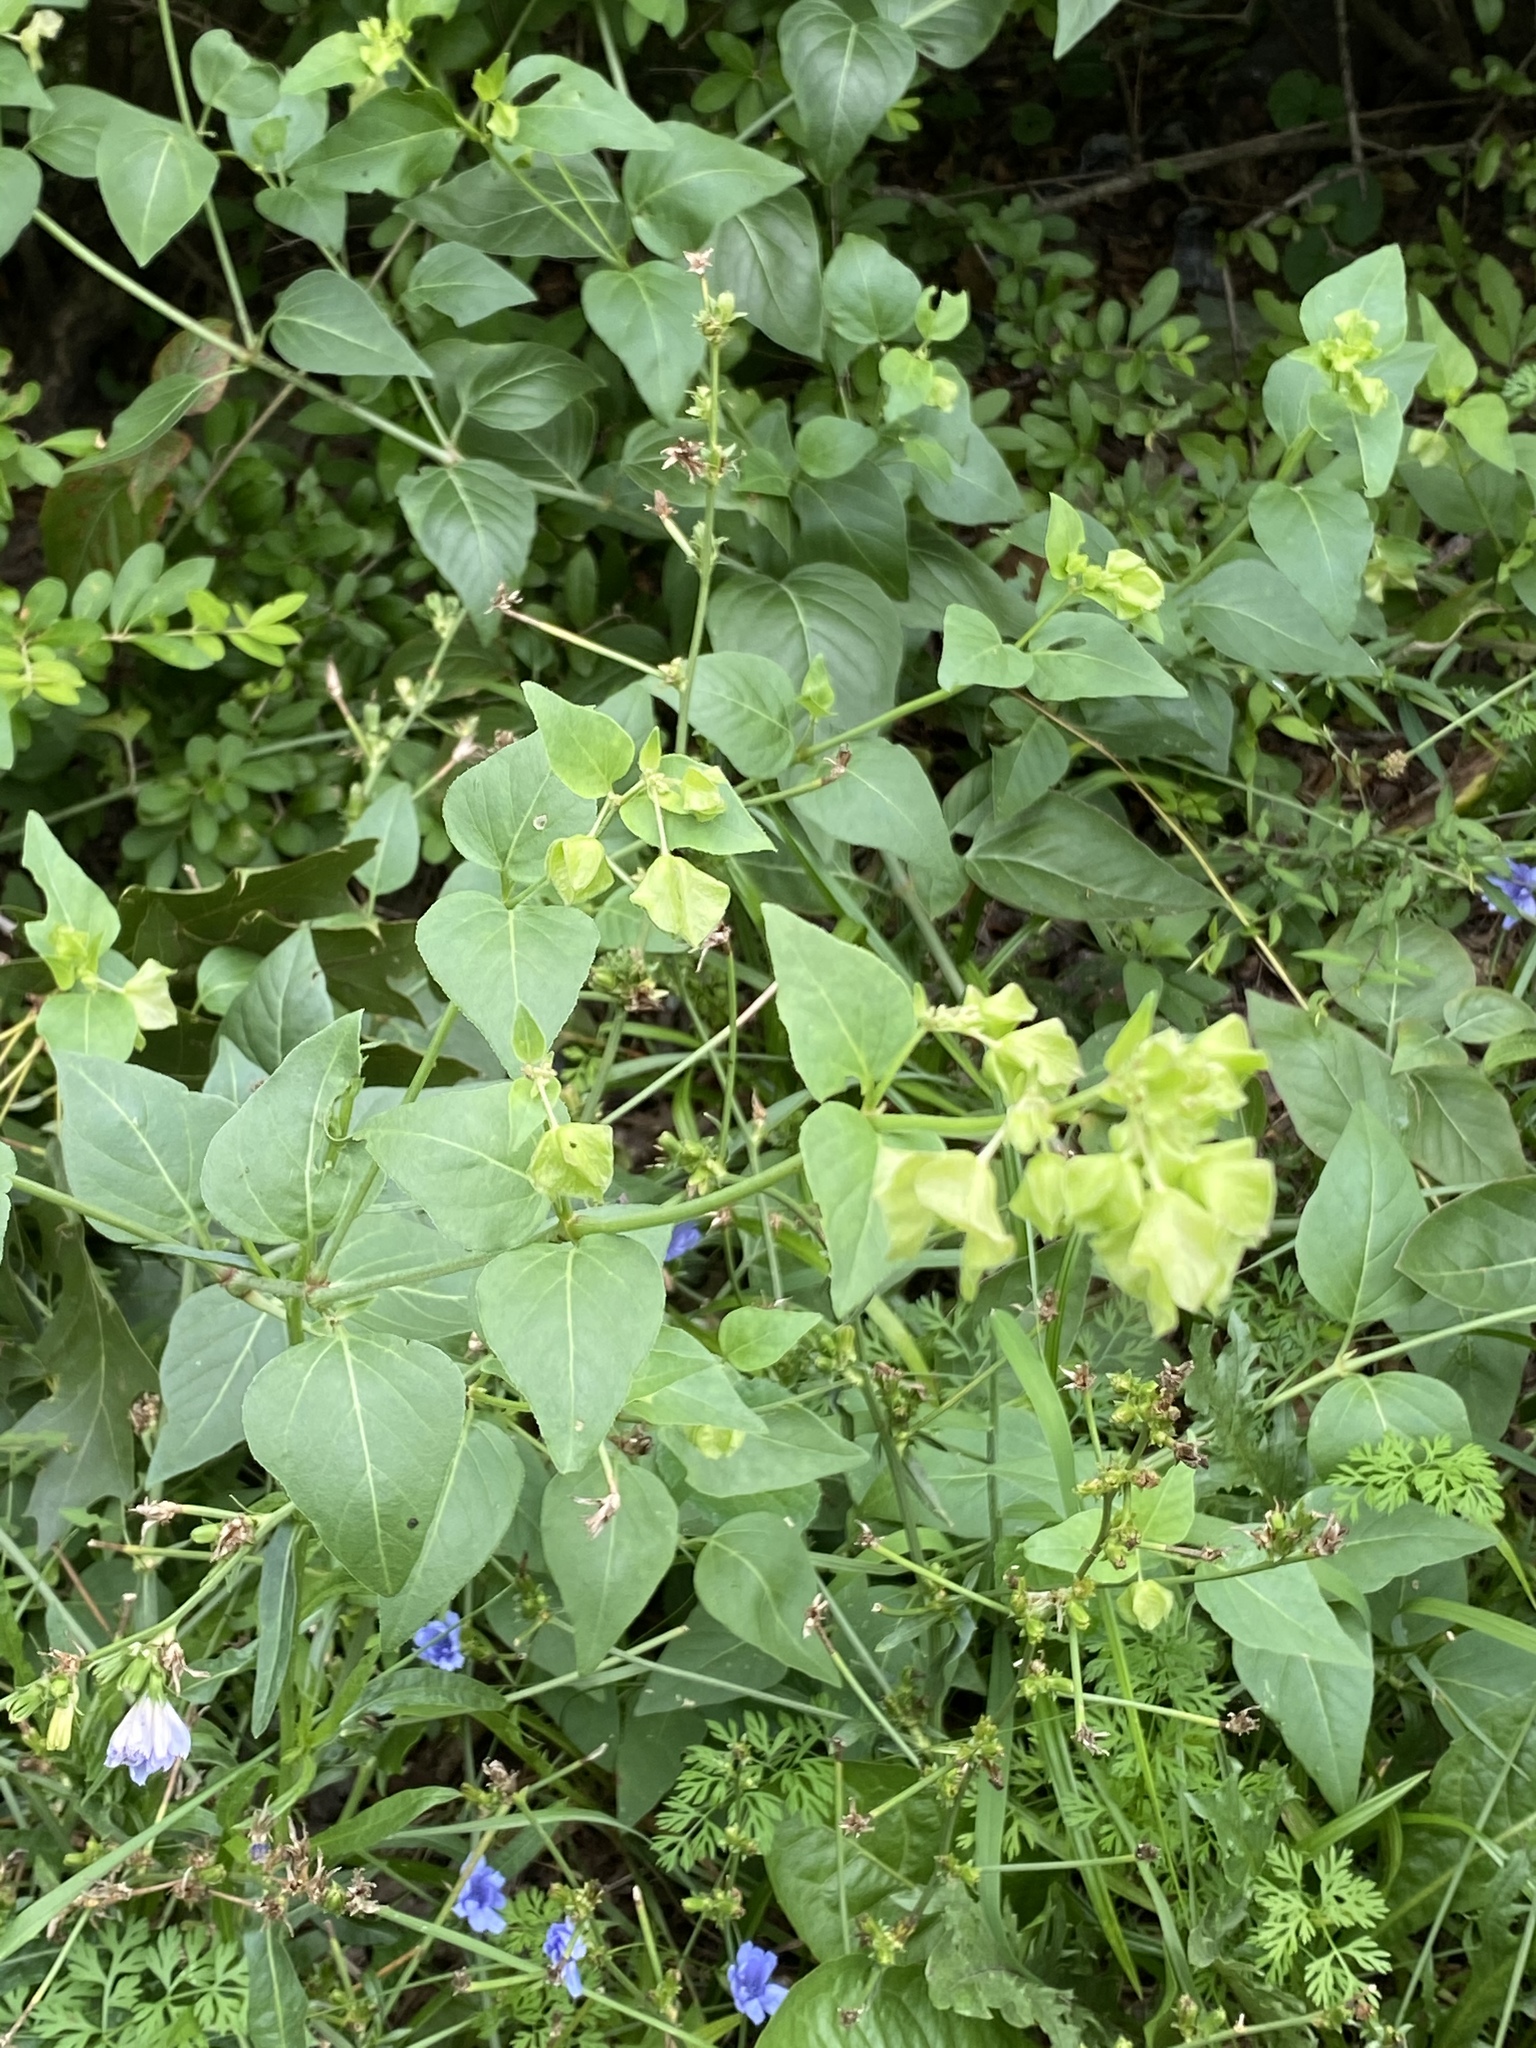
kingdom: Plantae
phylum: Tracheophyta
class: Magnoliopsida
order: Caryophyllales
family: Nyctaginaceae
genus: Mirabilis
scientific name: Mirabilis nyctaginea
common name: Umbrella wort
